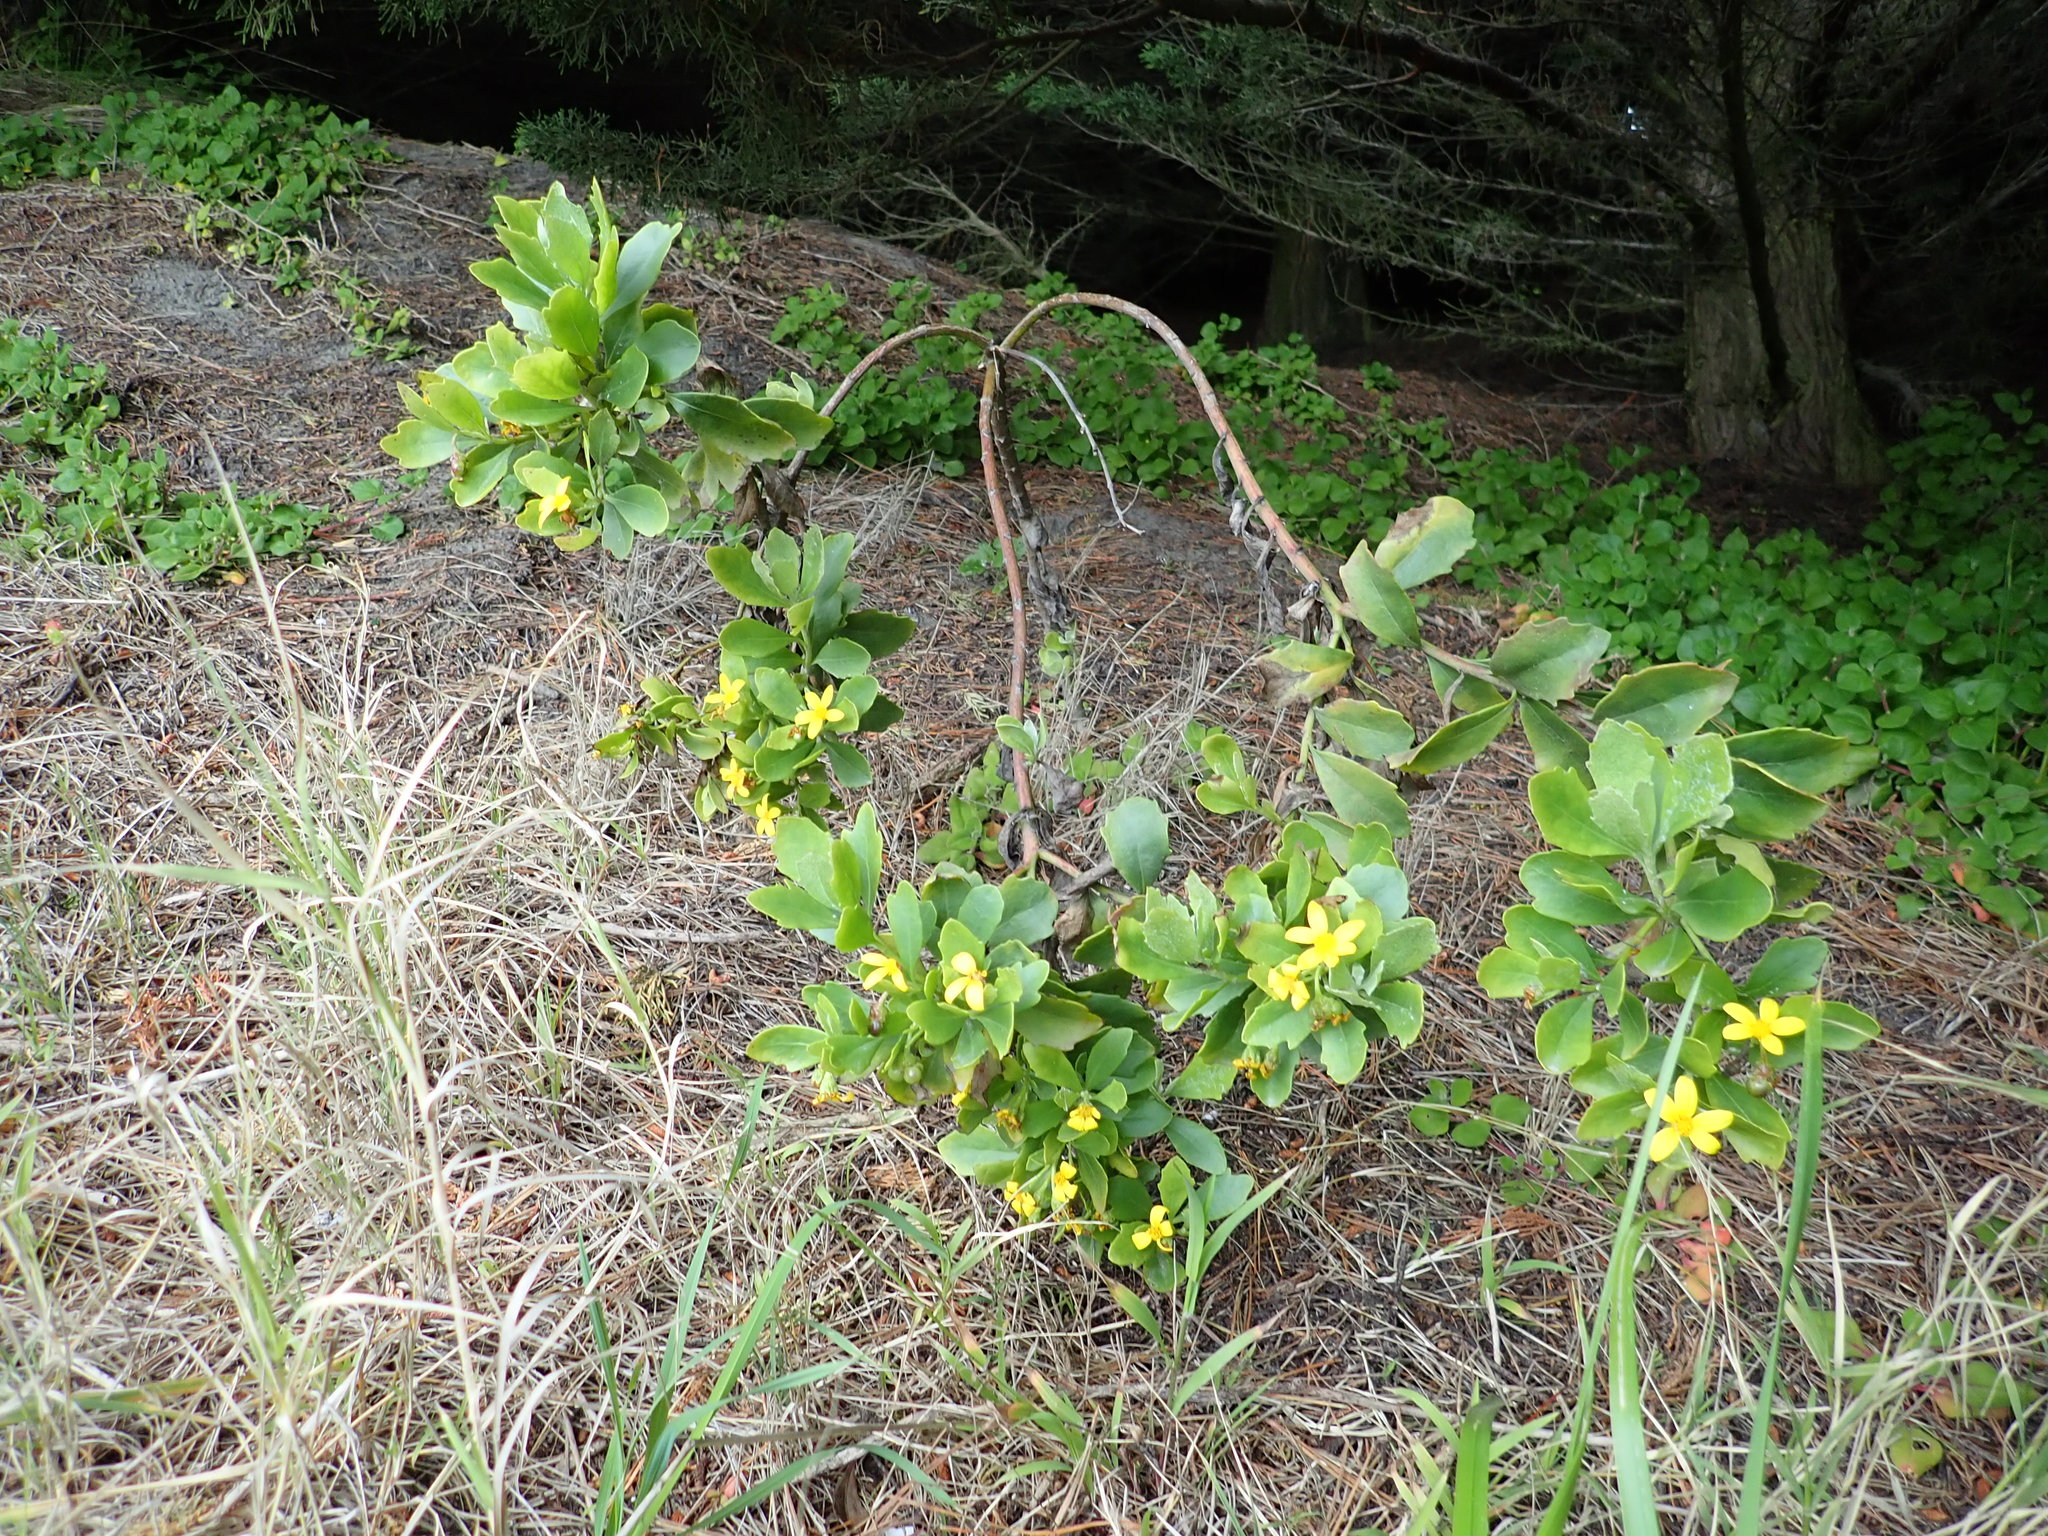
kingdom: Plantae
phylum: Tracheophyta
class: Magnoliopsida
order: Asterales
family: Asteraceae
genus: Senecio
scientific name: Senecio angulatus
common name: Climbing groundsel
